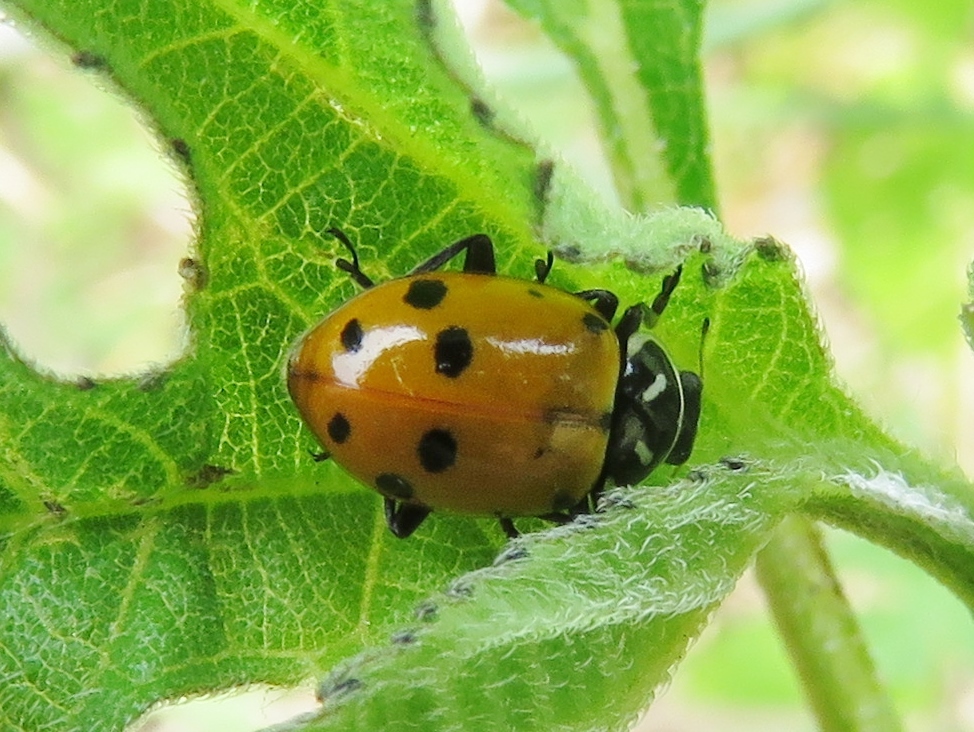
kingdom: Animalia
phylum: Arthropoda
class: Insecta
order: Coleoptera
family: Coccinellidae
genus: Hippodamia
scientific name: Hippodamia convergens
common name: Convergent lady beetle
